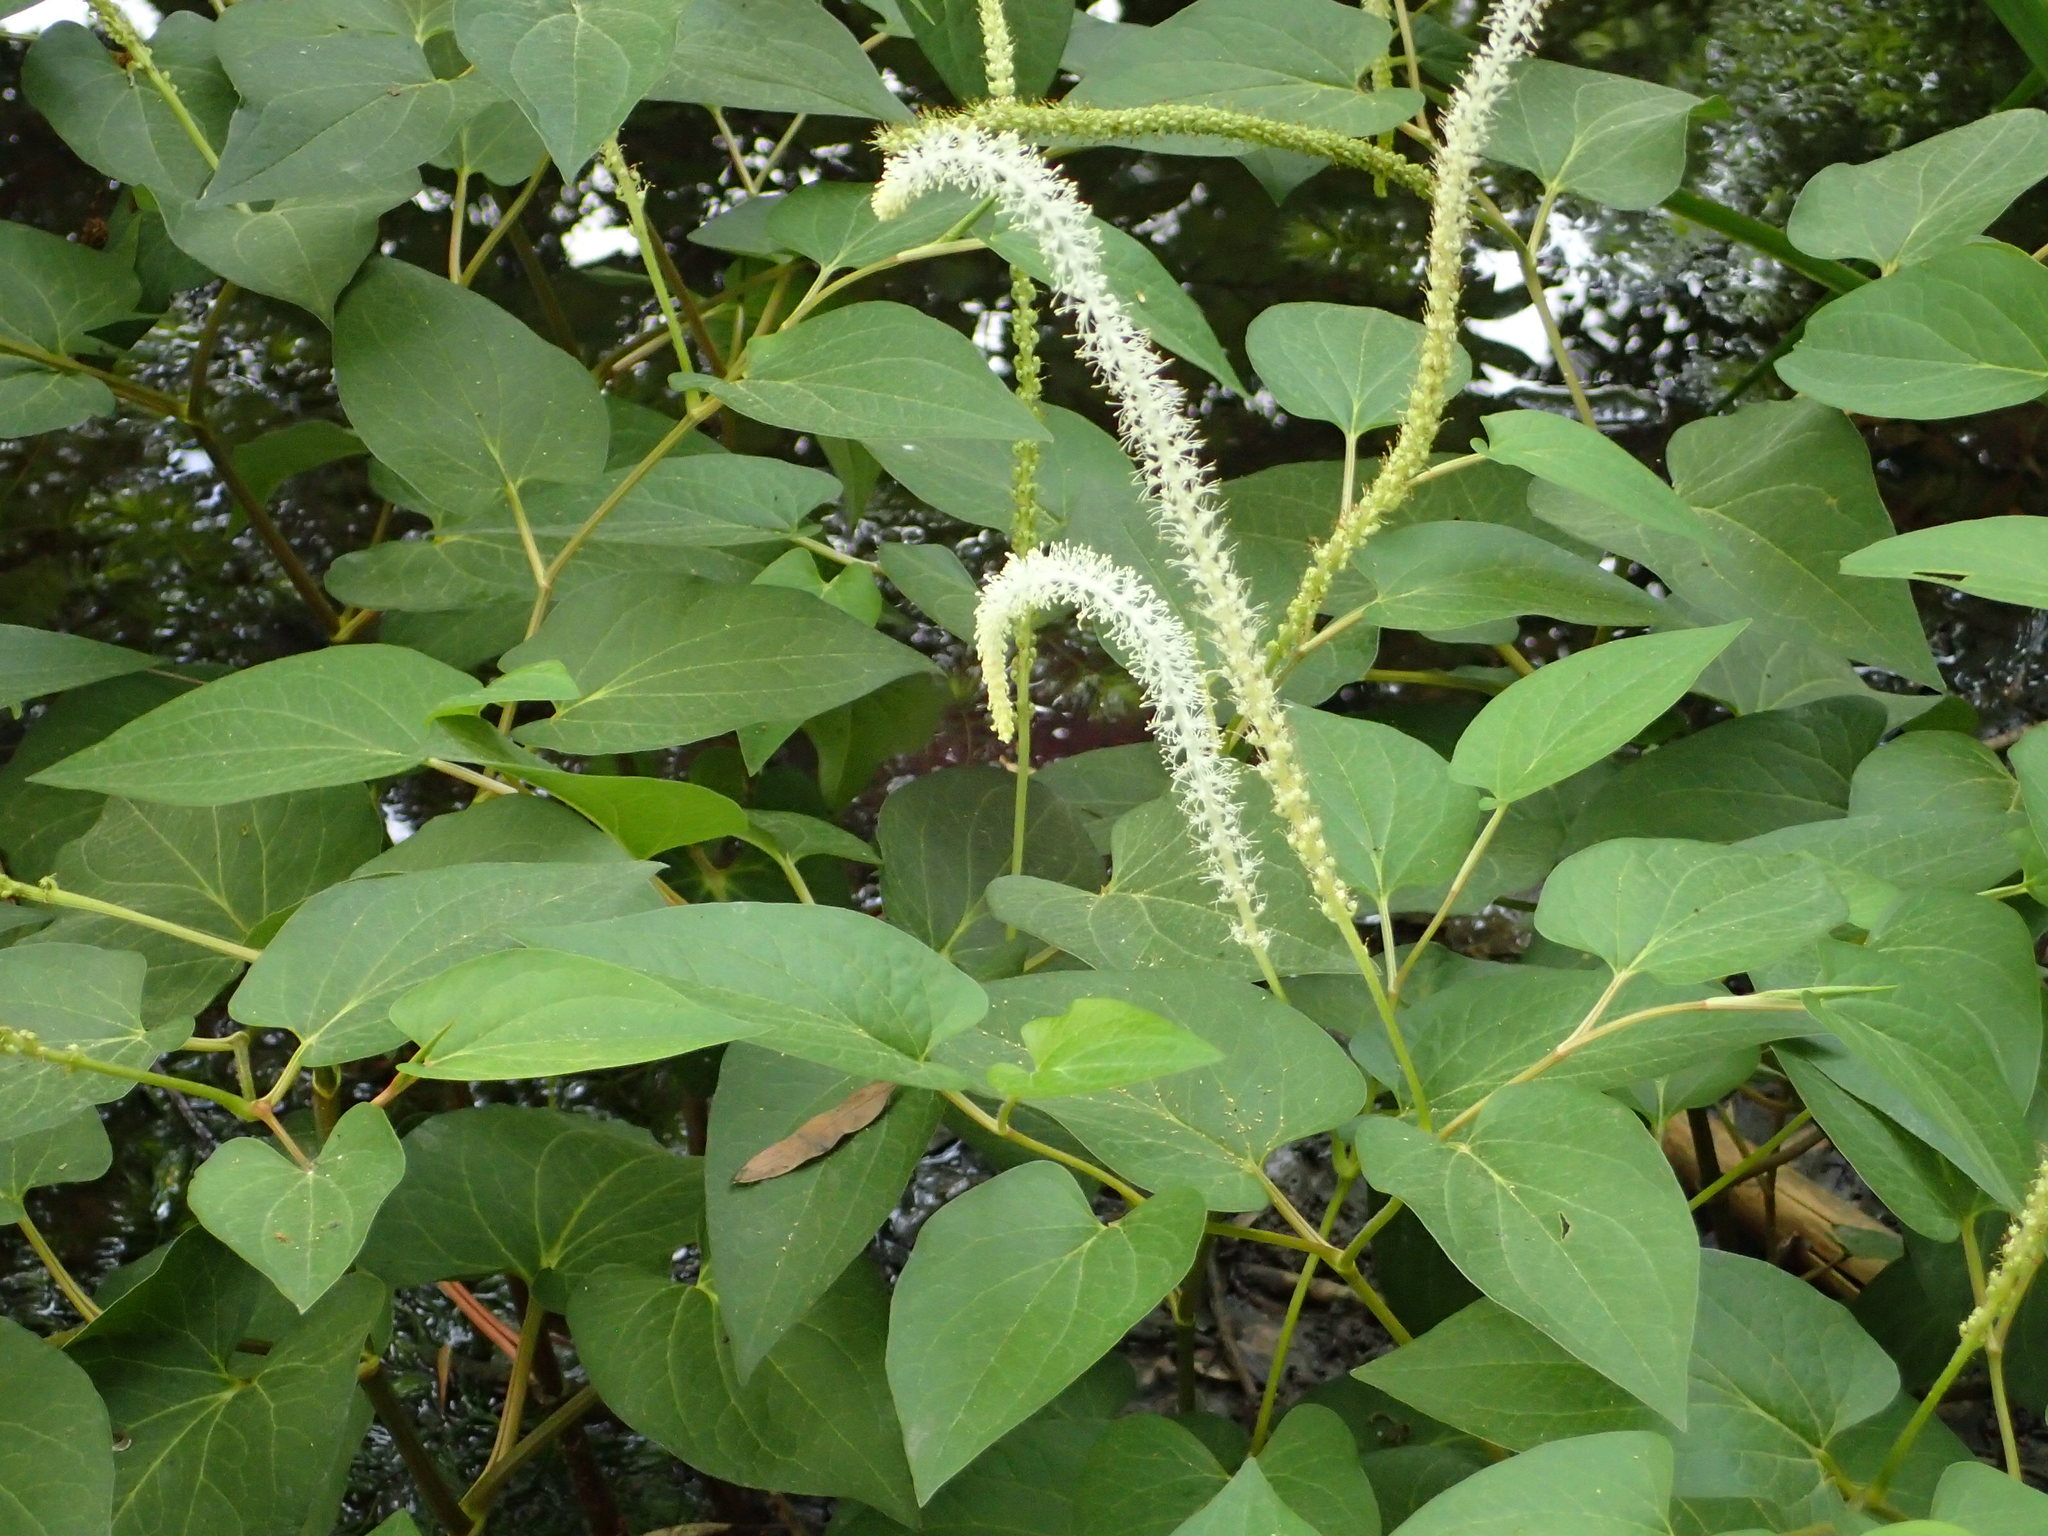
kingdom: Plantae
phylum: Tracheophyta
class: Magnoliopsida
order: Piperales
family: Saururaceae
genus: Saururus
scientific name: Saururus cernuus
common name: Lizard's-tail
